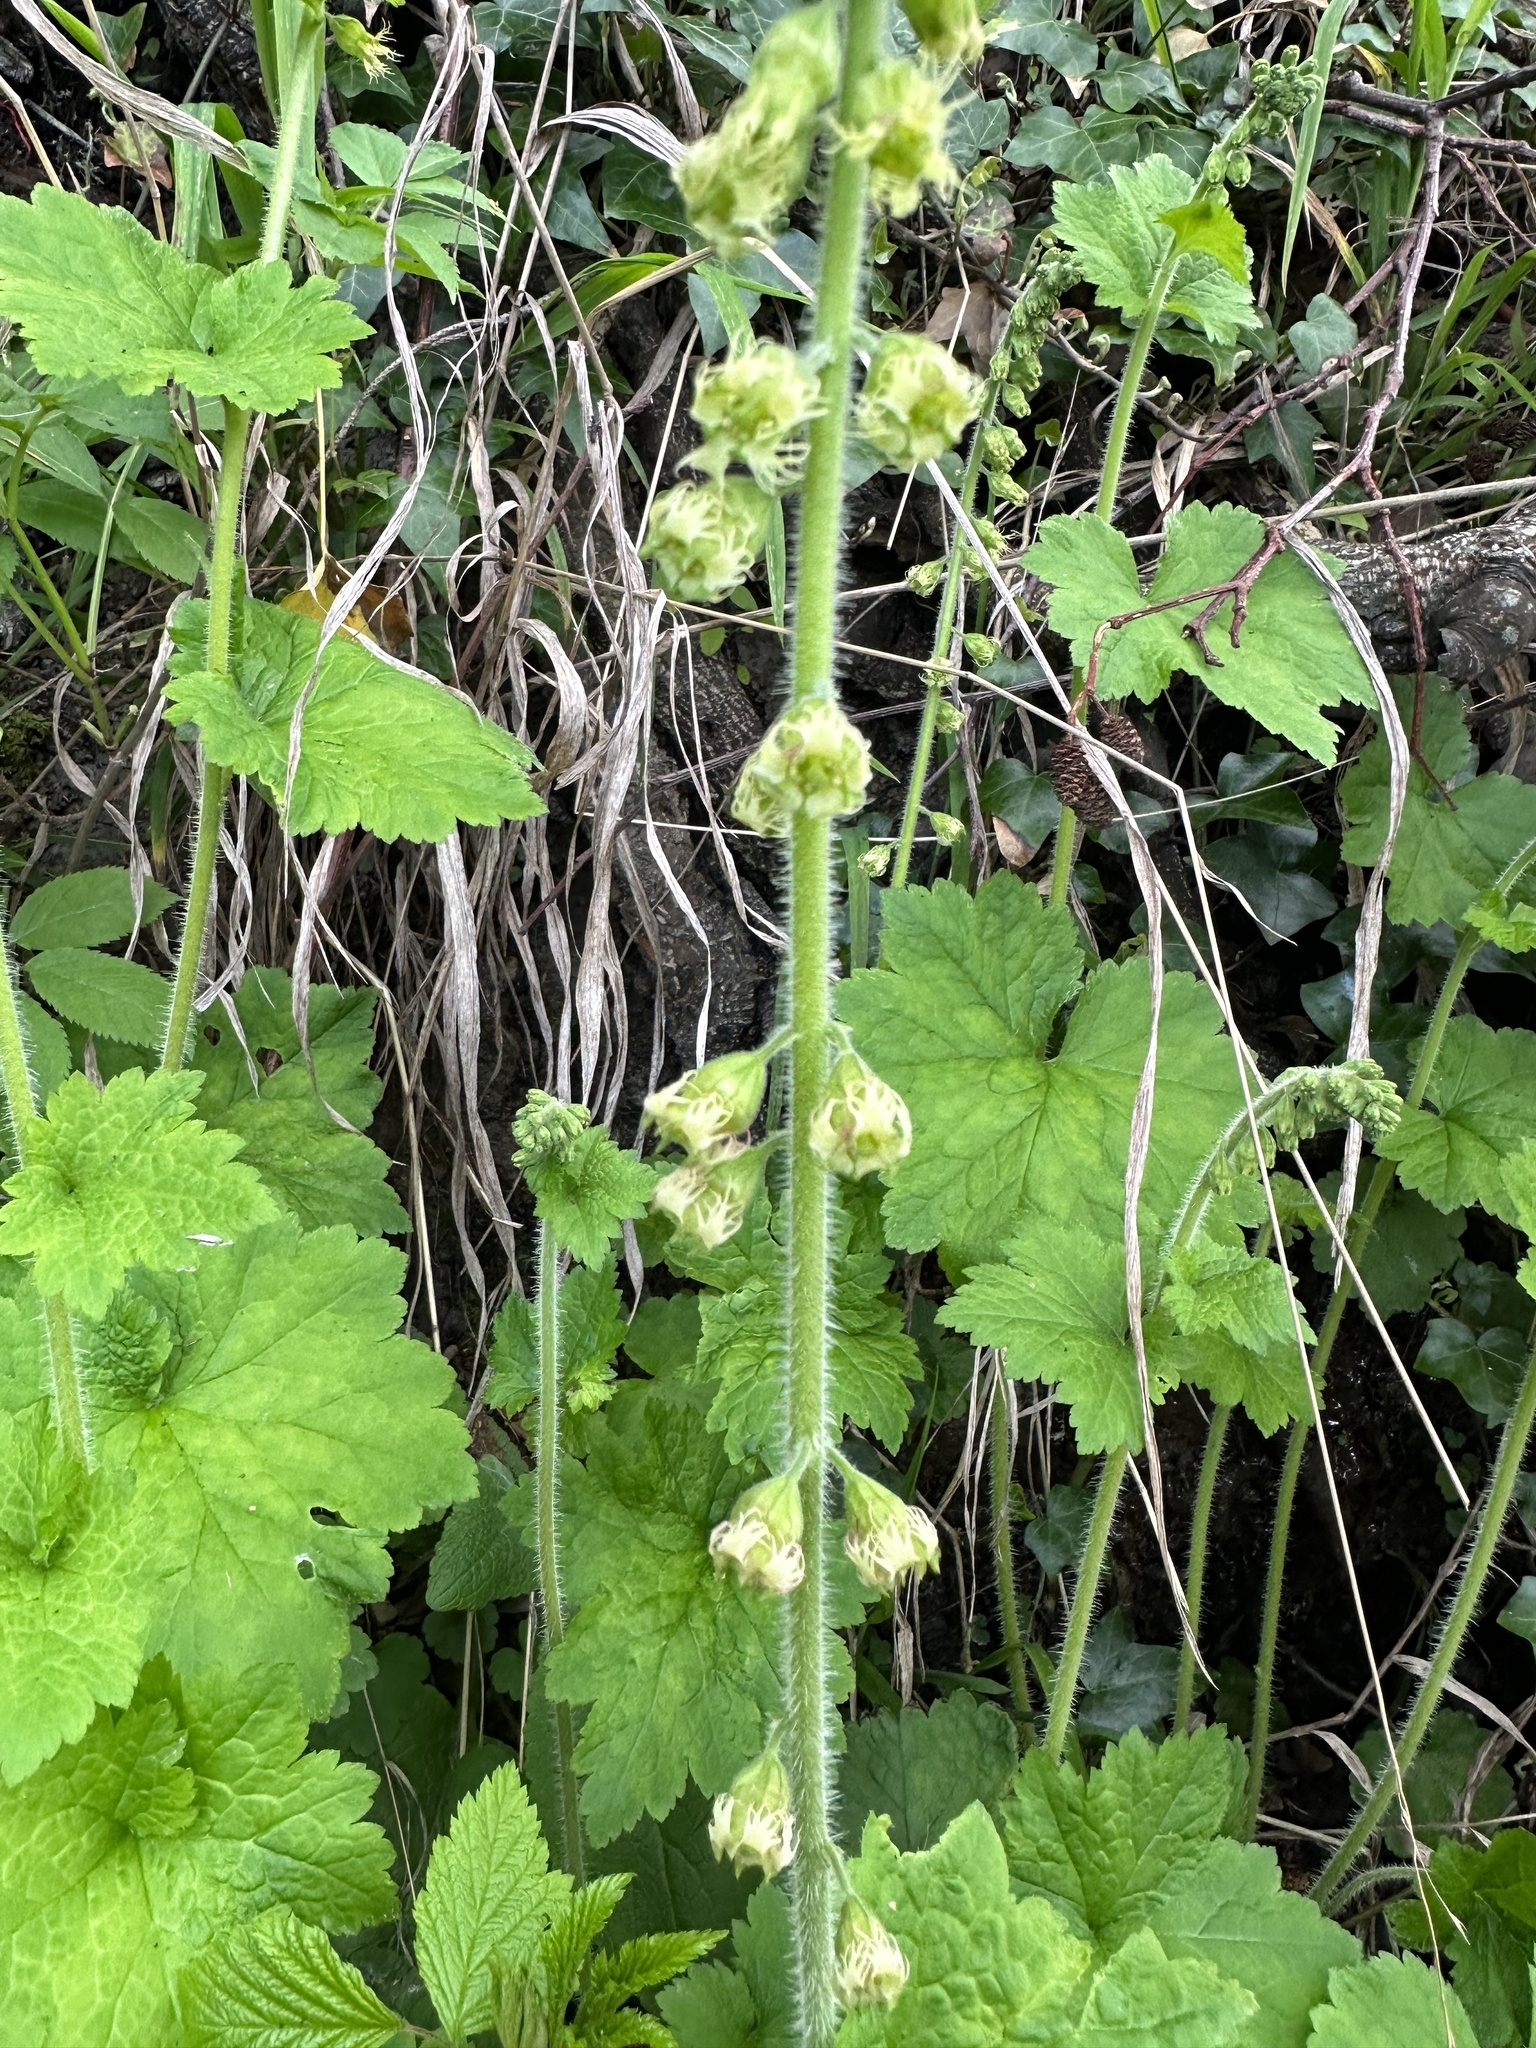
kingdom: Plantae
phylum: Tracheophyta
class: Magnoliopsida
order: Saxifragales
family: Saxifragaceae
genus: Tellima
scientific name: Tellima grandiflora
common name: Fringecups
